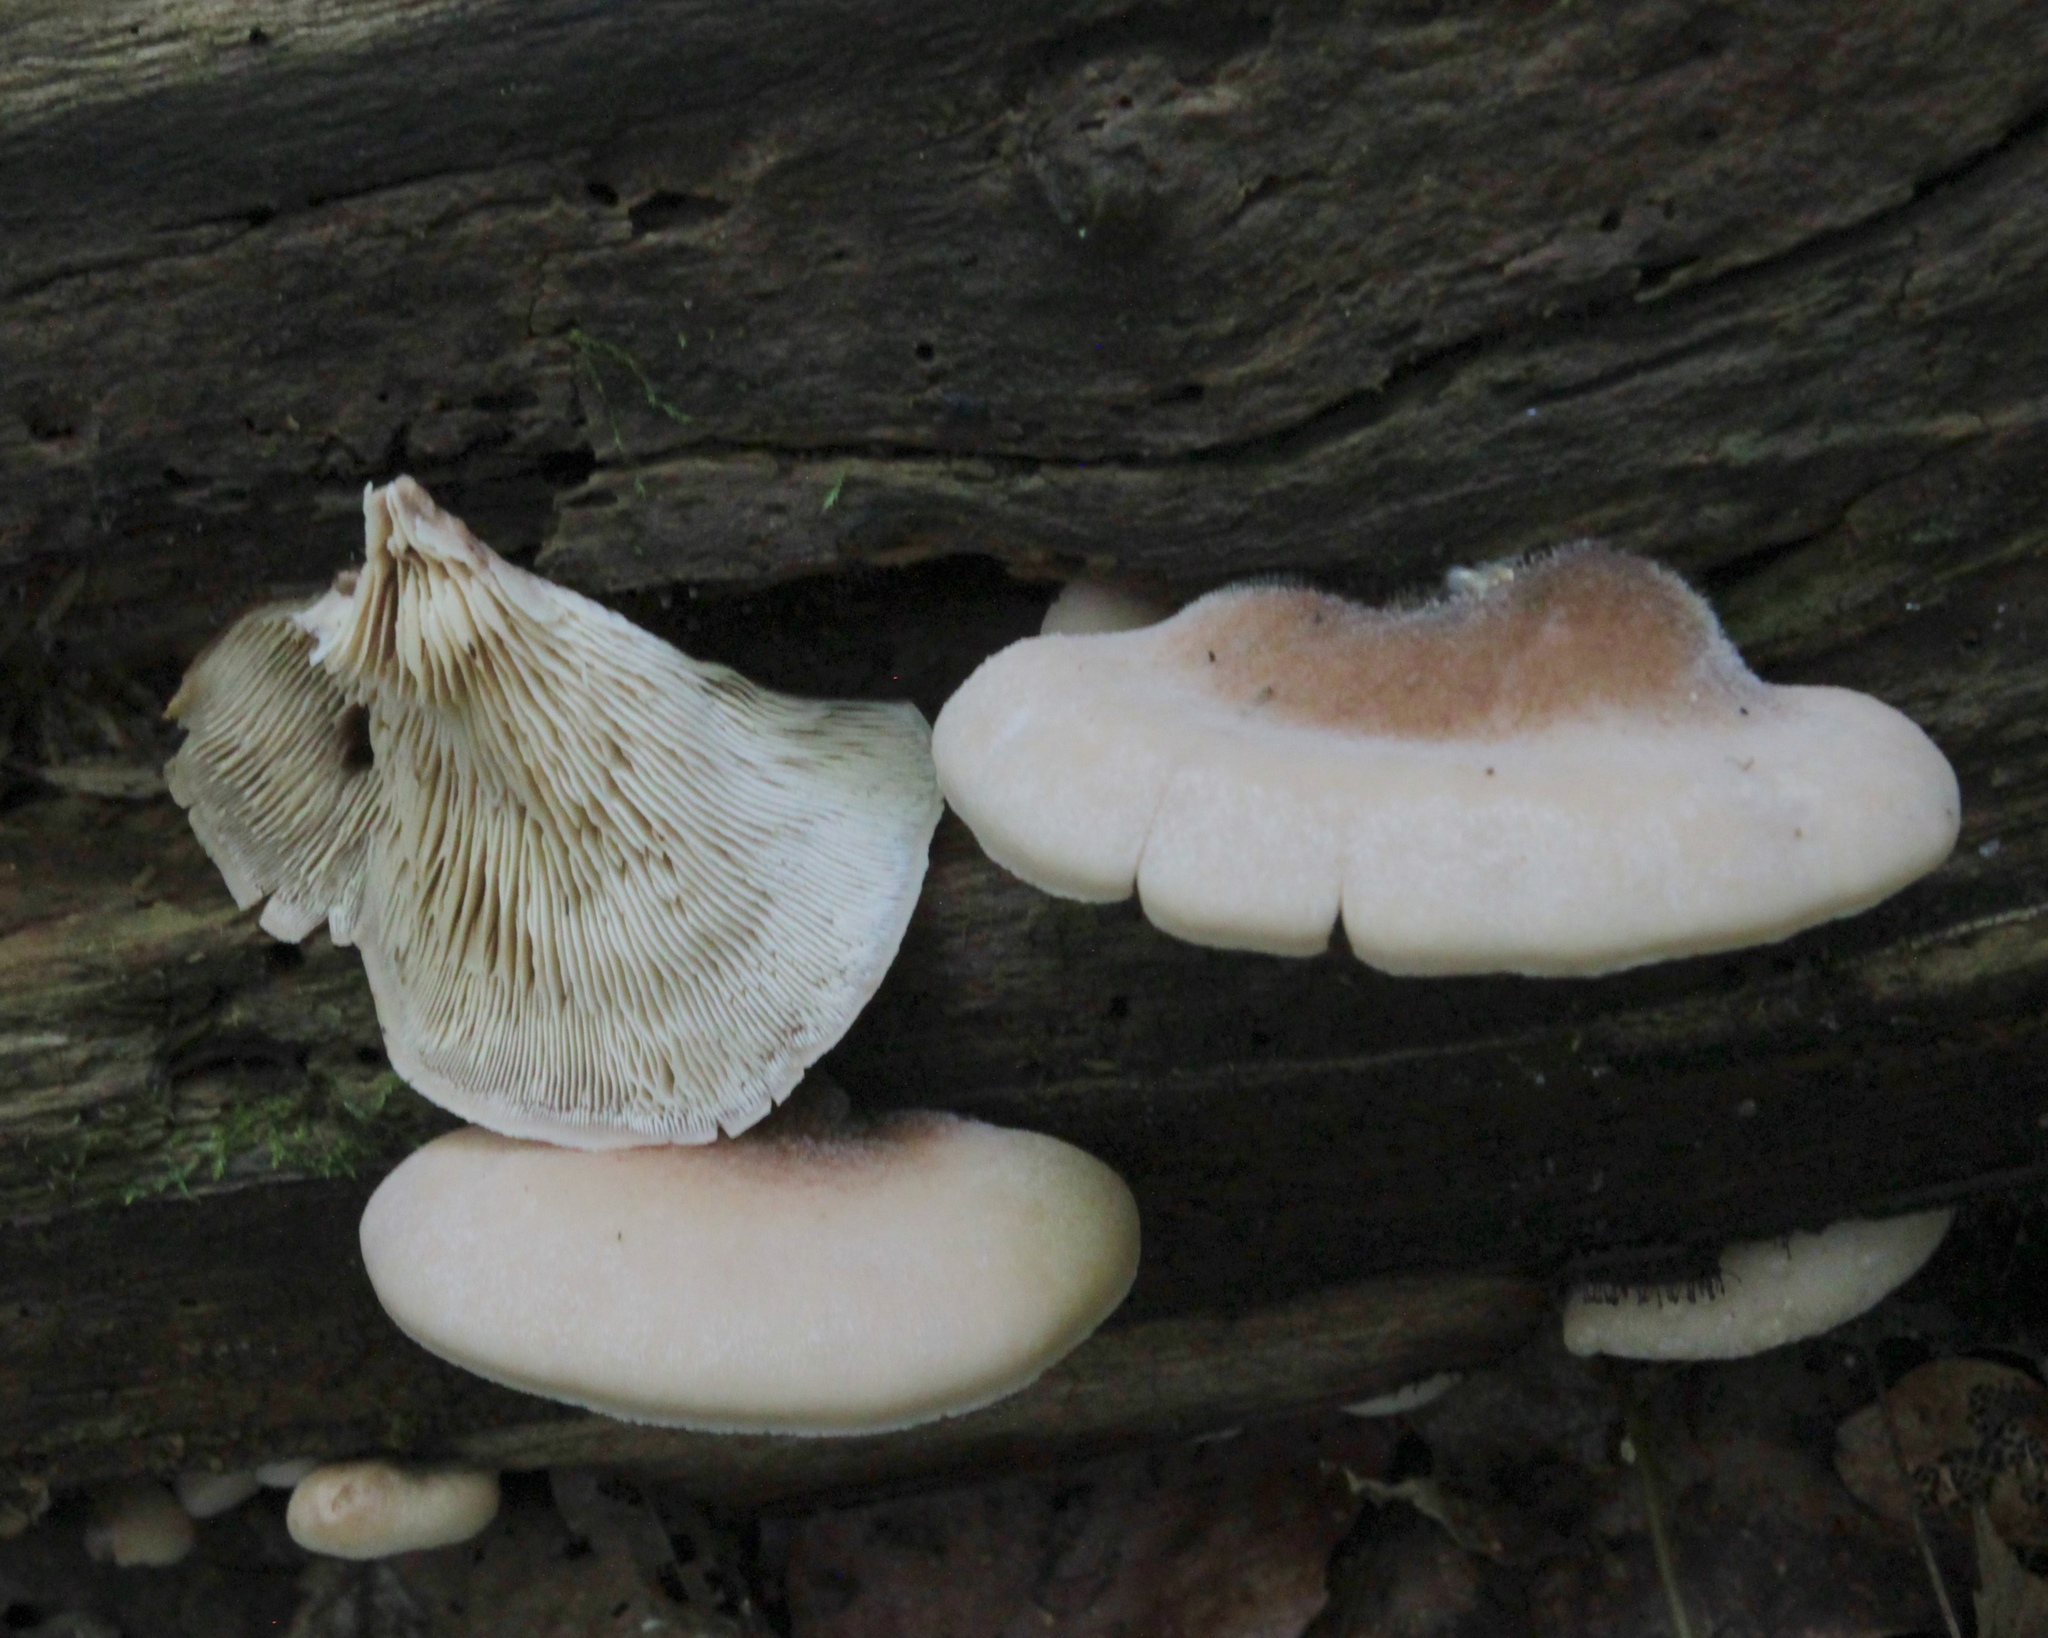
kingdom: Fungi
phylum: Basidiomycota
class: Agaricomycetes
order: Russulales
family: Auriscalpiaceae
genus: Lentinellus
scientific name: Lentinellus ursinus
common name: Bear lentinus
